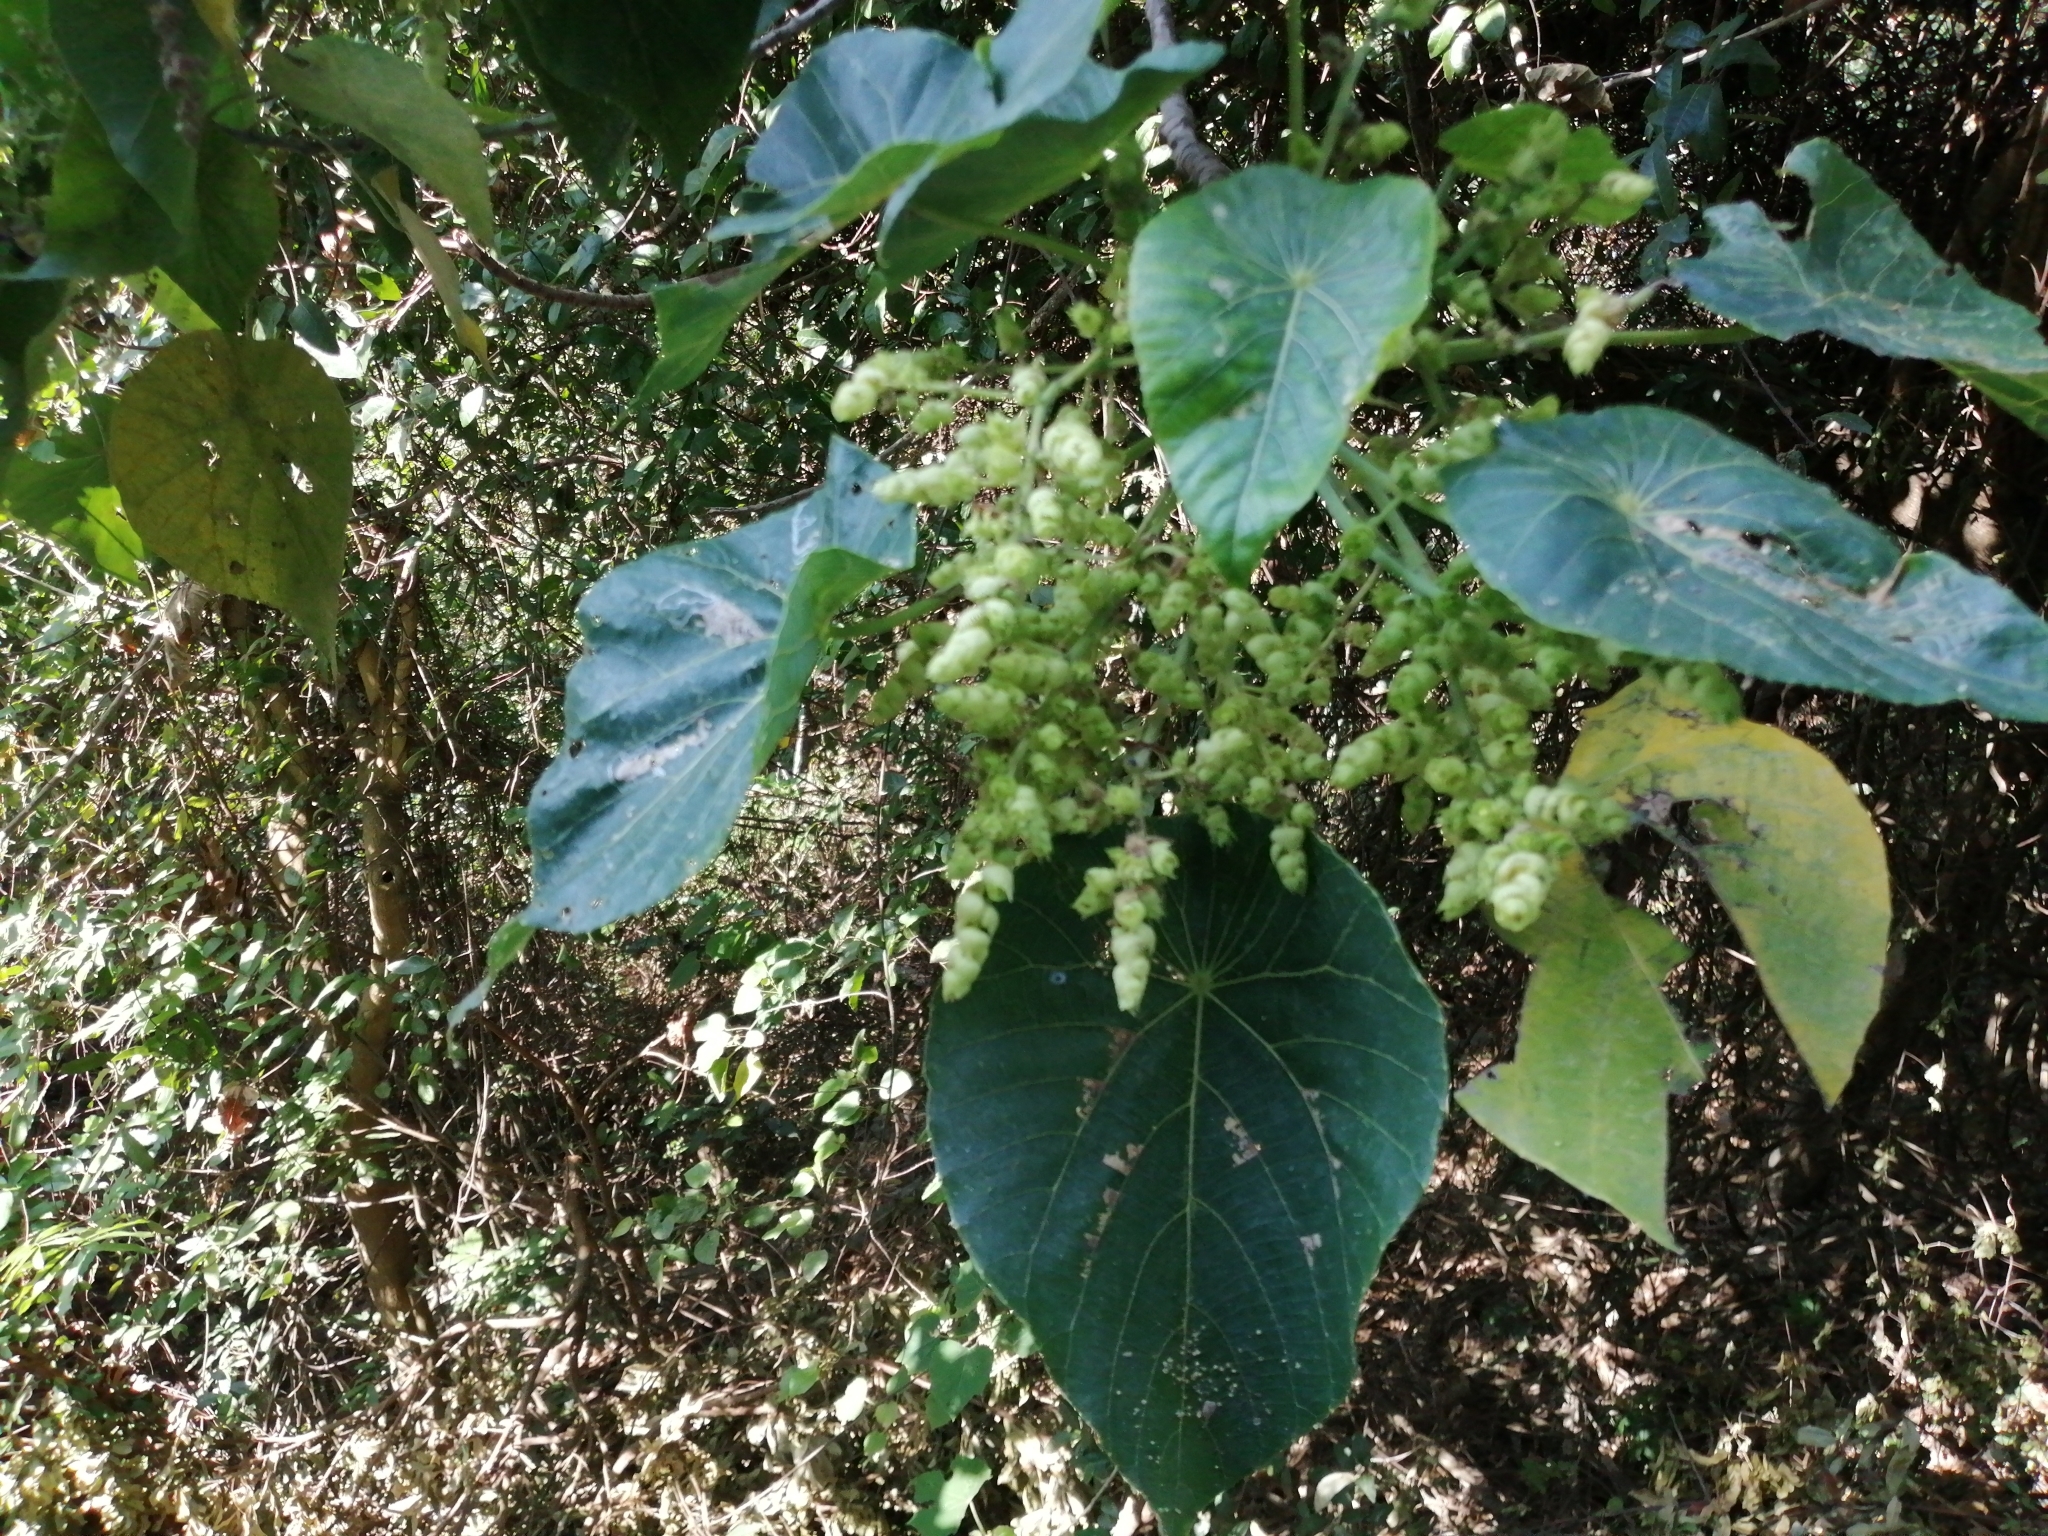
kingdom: Plantae
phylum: Tracheophyta
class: Magnoliopsida
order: Malpighiales
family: Euphorbiaceae
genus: Macaranga
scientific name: Macaranga tanarius
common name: Parasol leaf tree
